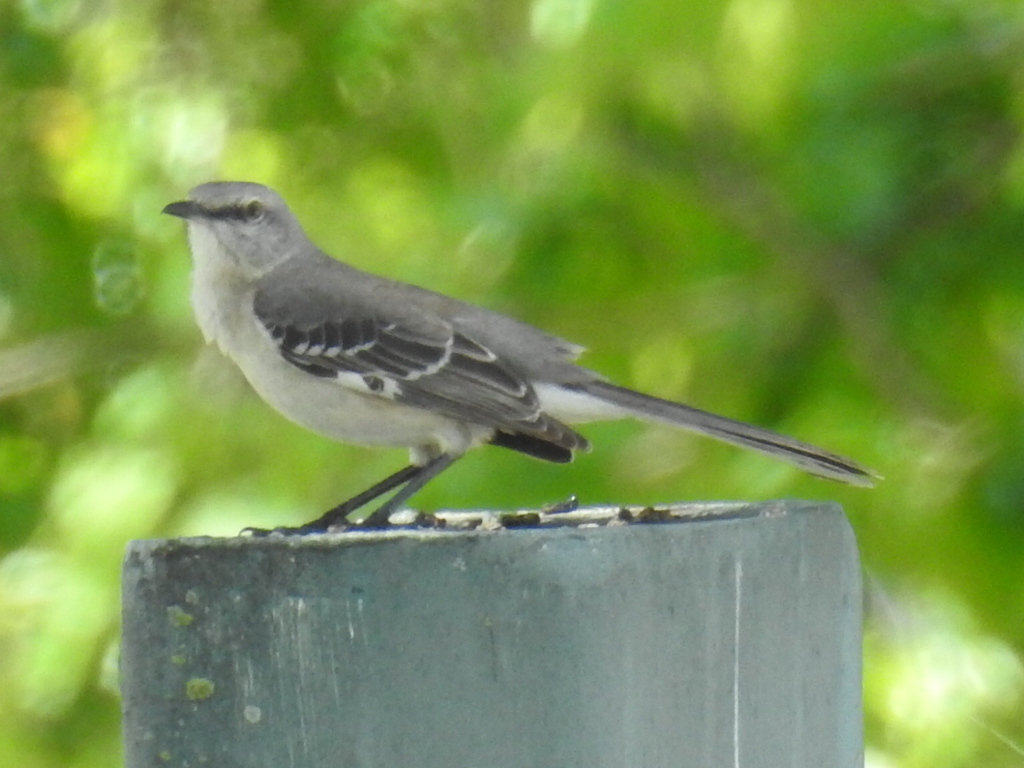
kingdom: Animalia
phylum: Chordata
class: Aves
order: Passeriformes
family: Mimidae
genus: Mimus
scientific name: Mimus polyglottos
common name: Northern mockingbird
